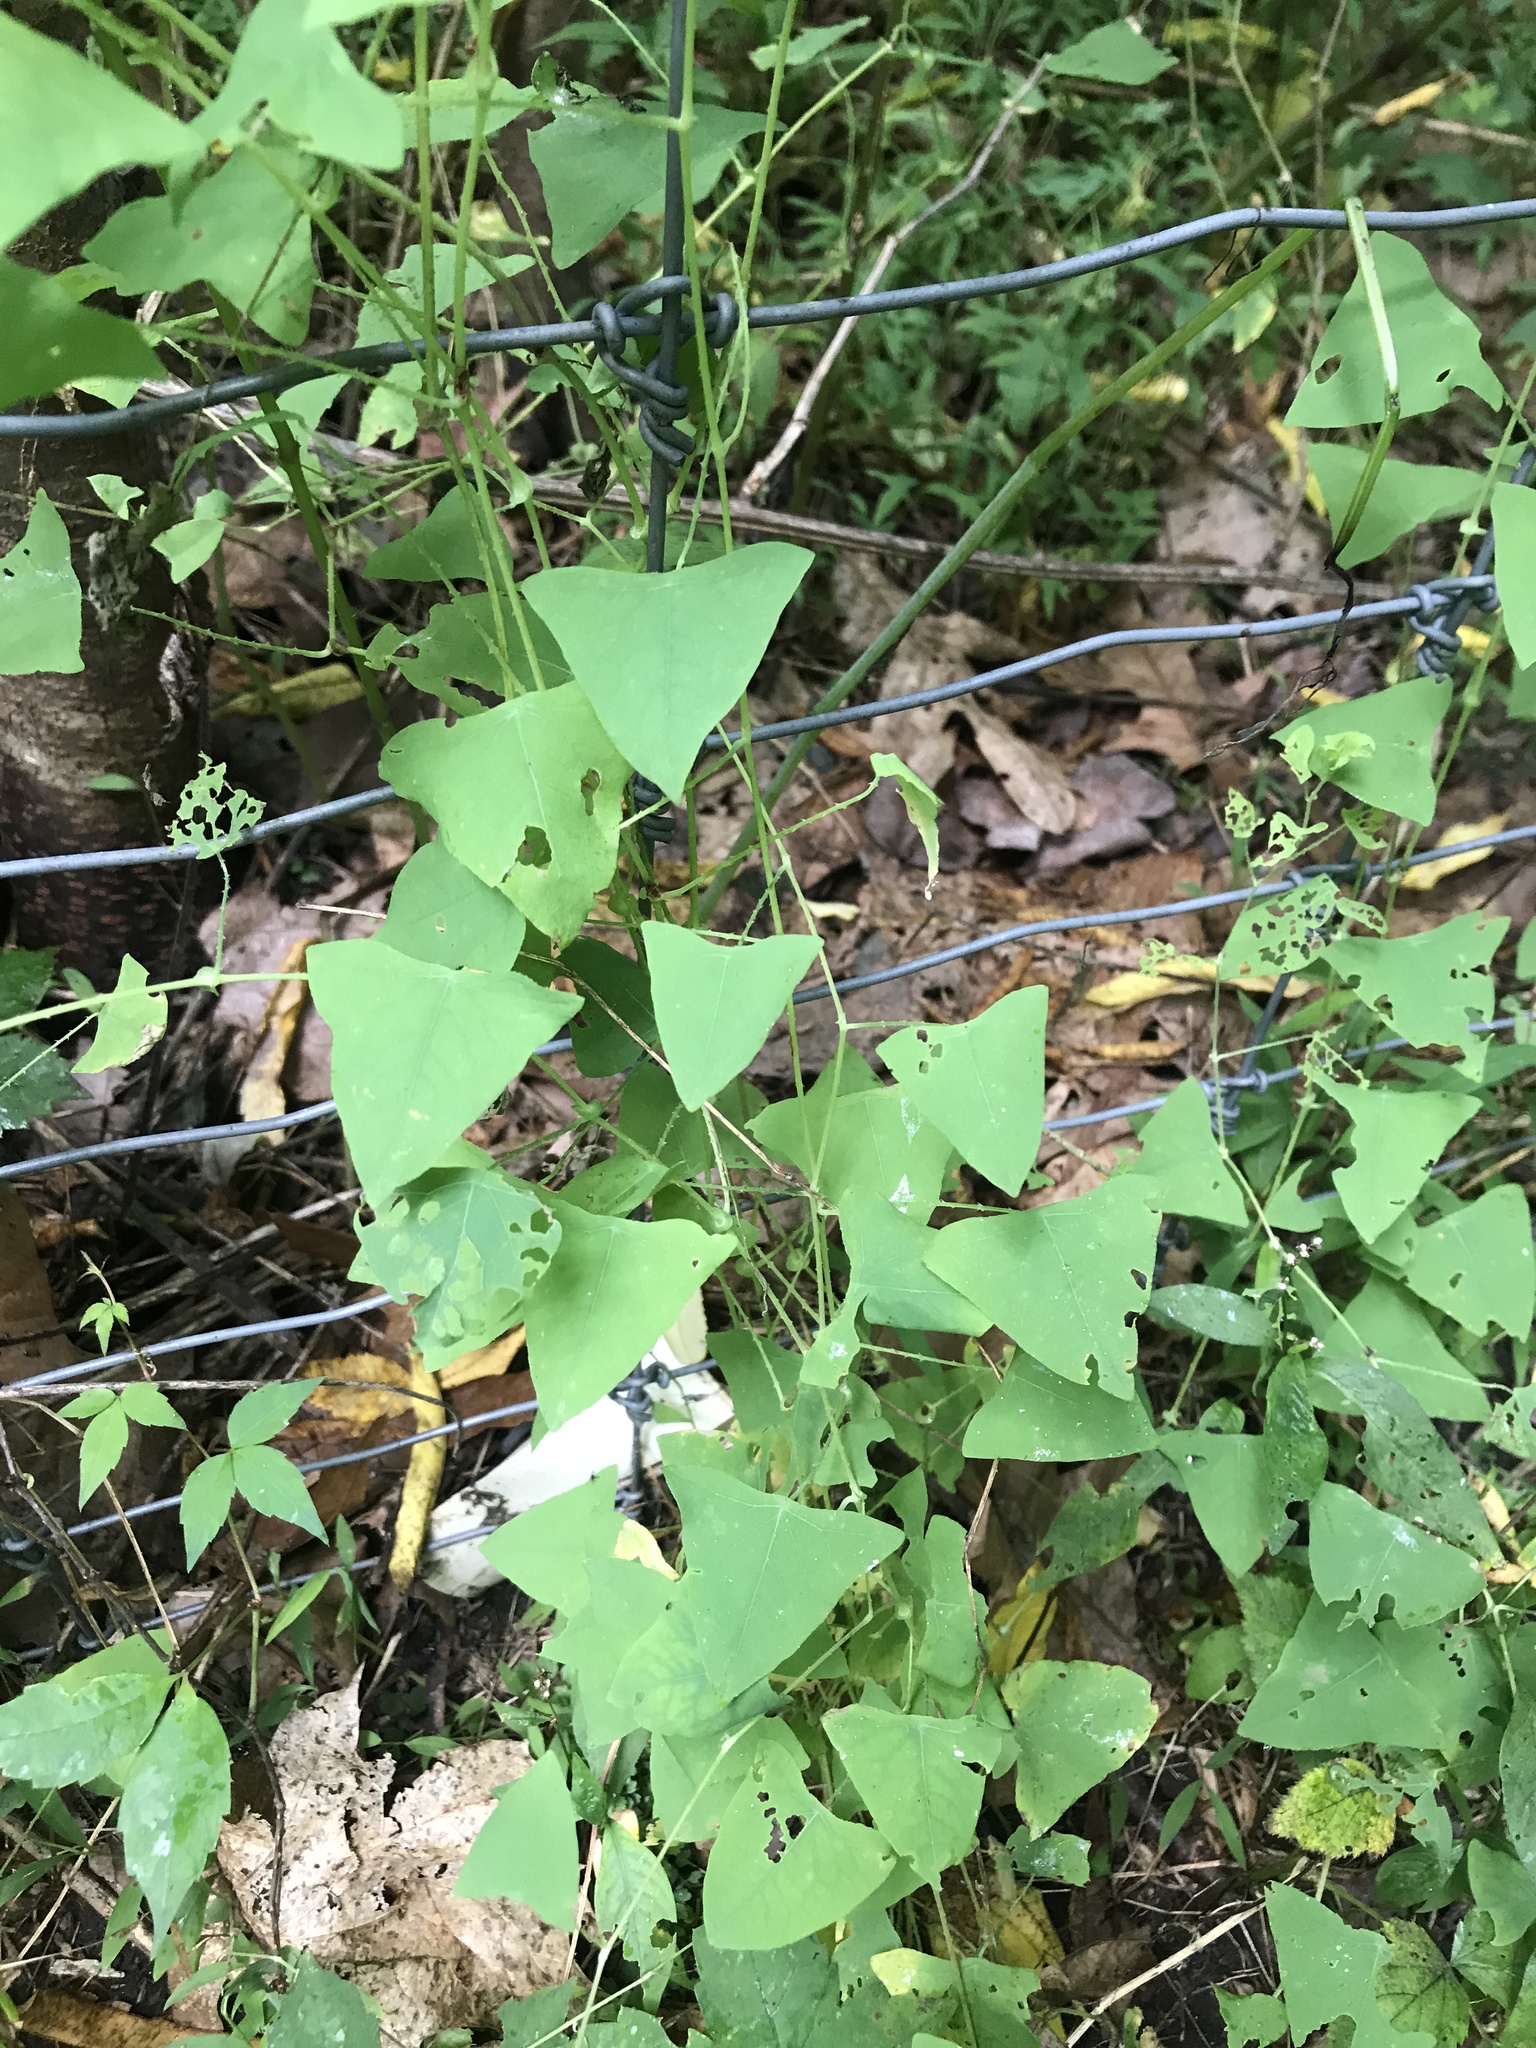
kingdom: Plantae
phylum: Tracheophyta
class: Magnoliopsida
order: Caryophyllales
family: Polygonaceae
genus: Persicaria
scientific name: Persicaria perfoliata
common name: Asiatic tearthumb
